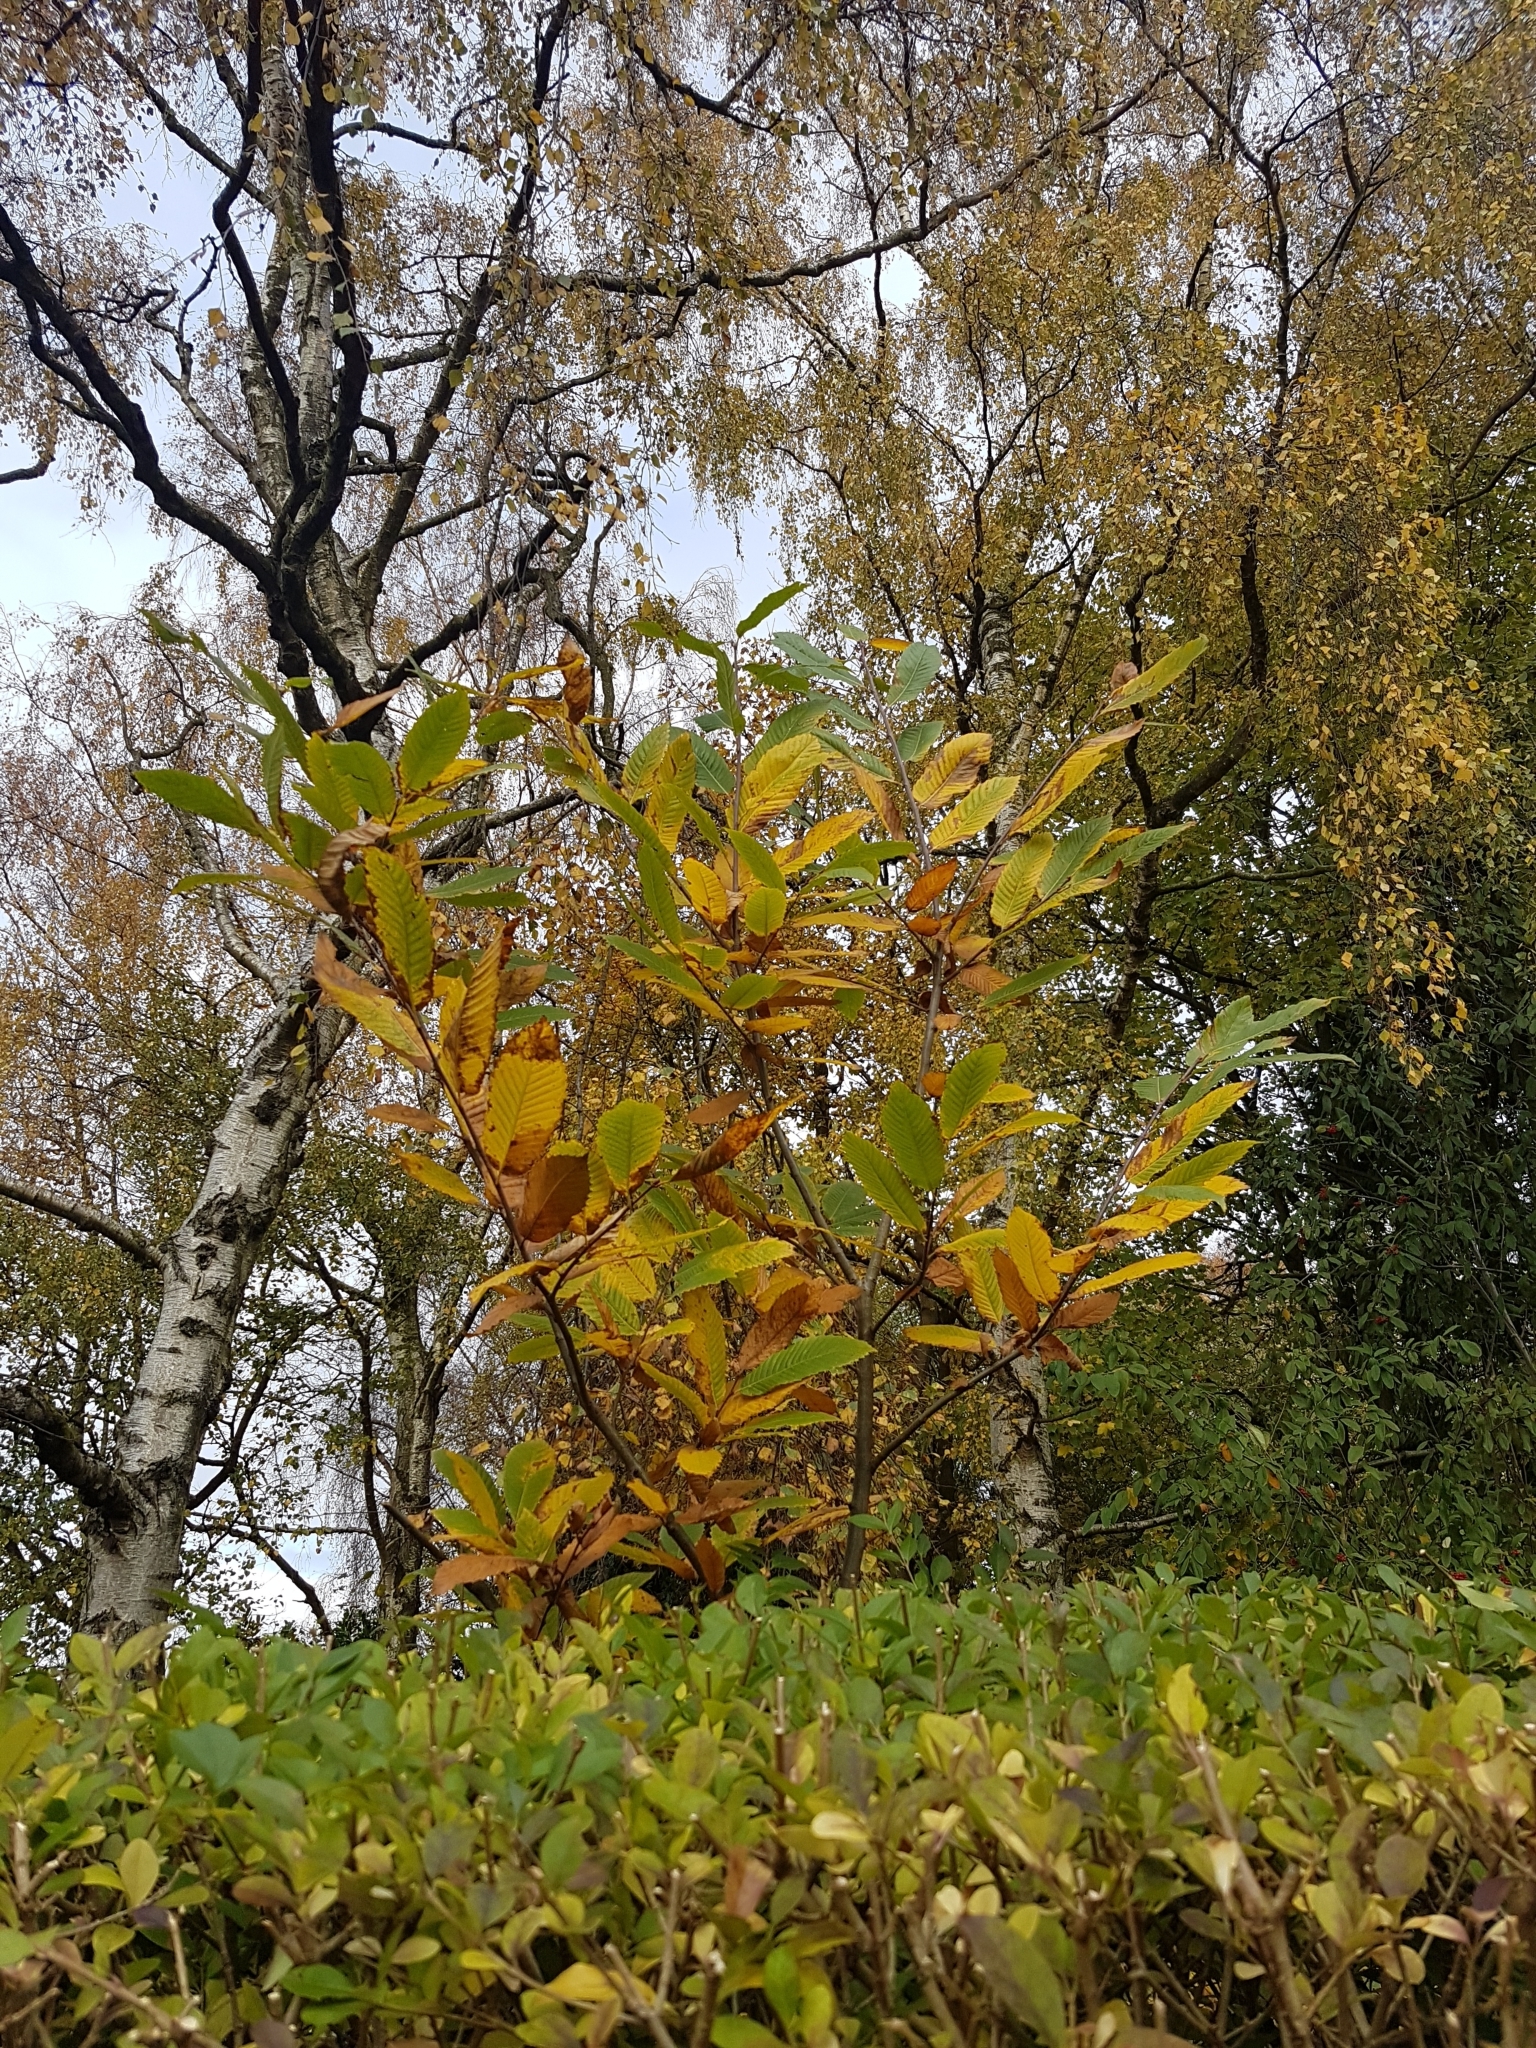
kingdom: Plantae
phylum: Tracheophyta
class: Magnoliopsida
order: Fagales
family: Fagaceae
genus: Castanea
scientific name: Castanea sativa
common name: Sweet chestnut
